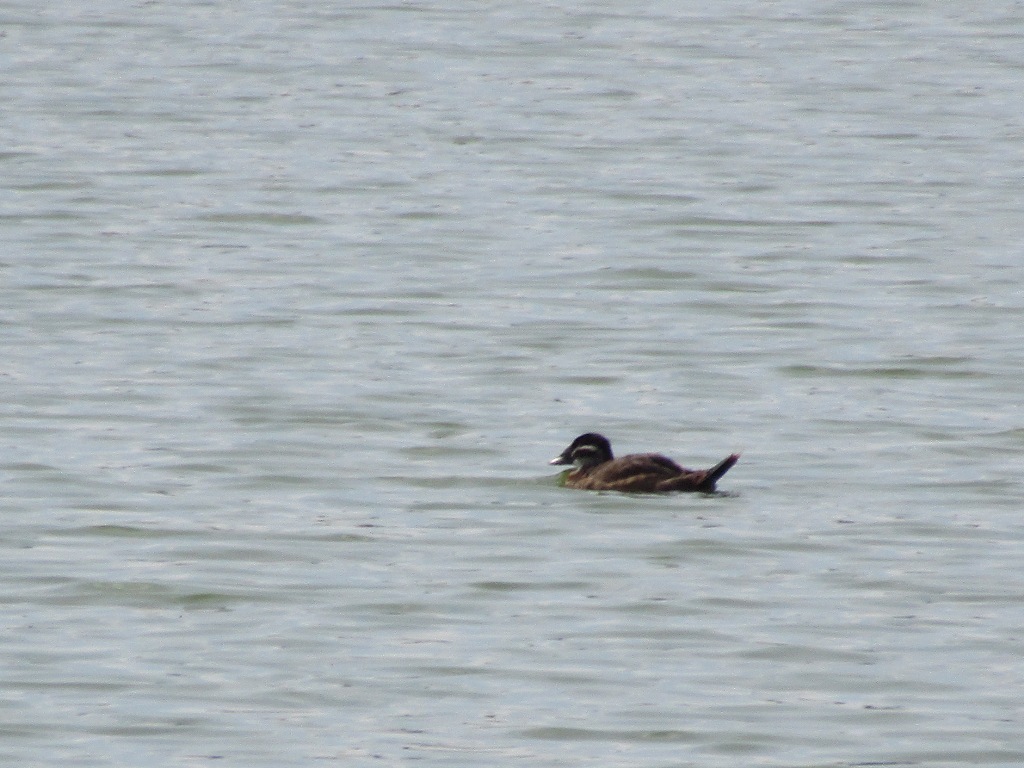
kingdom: Animalia
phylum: Chordata
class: Aves
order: Anseriformes
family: Anatidae
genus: Oxyura
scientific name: Oxyura leucocephala
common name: White-headed duck
